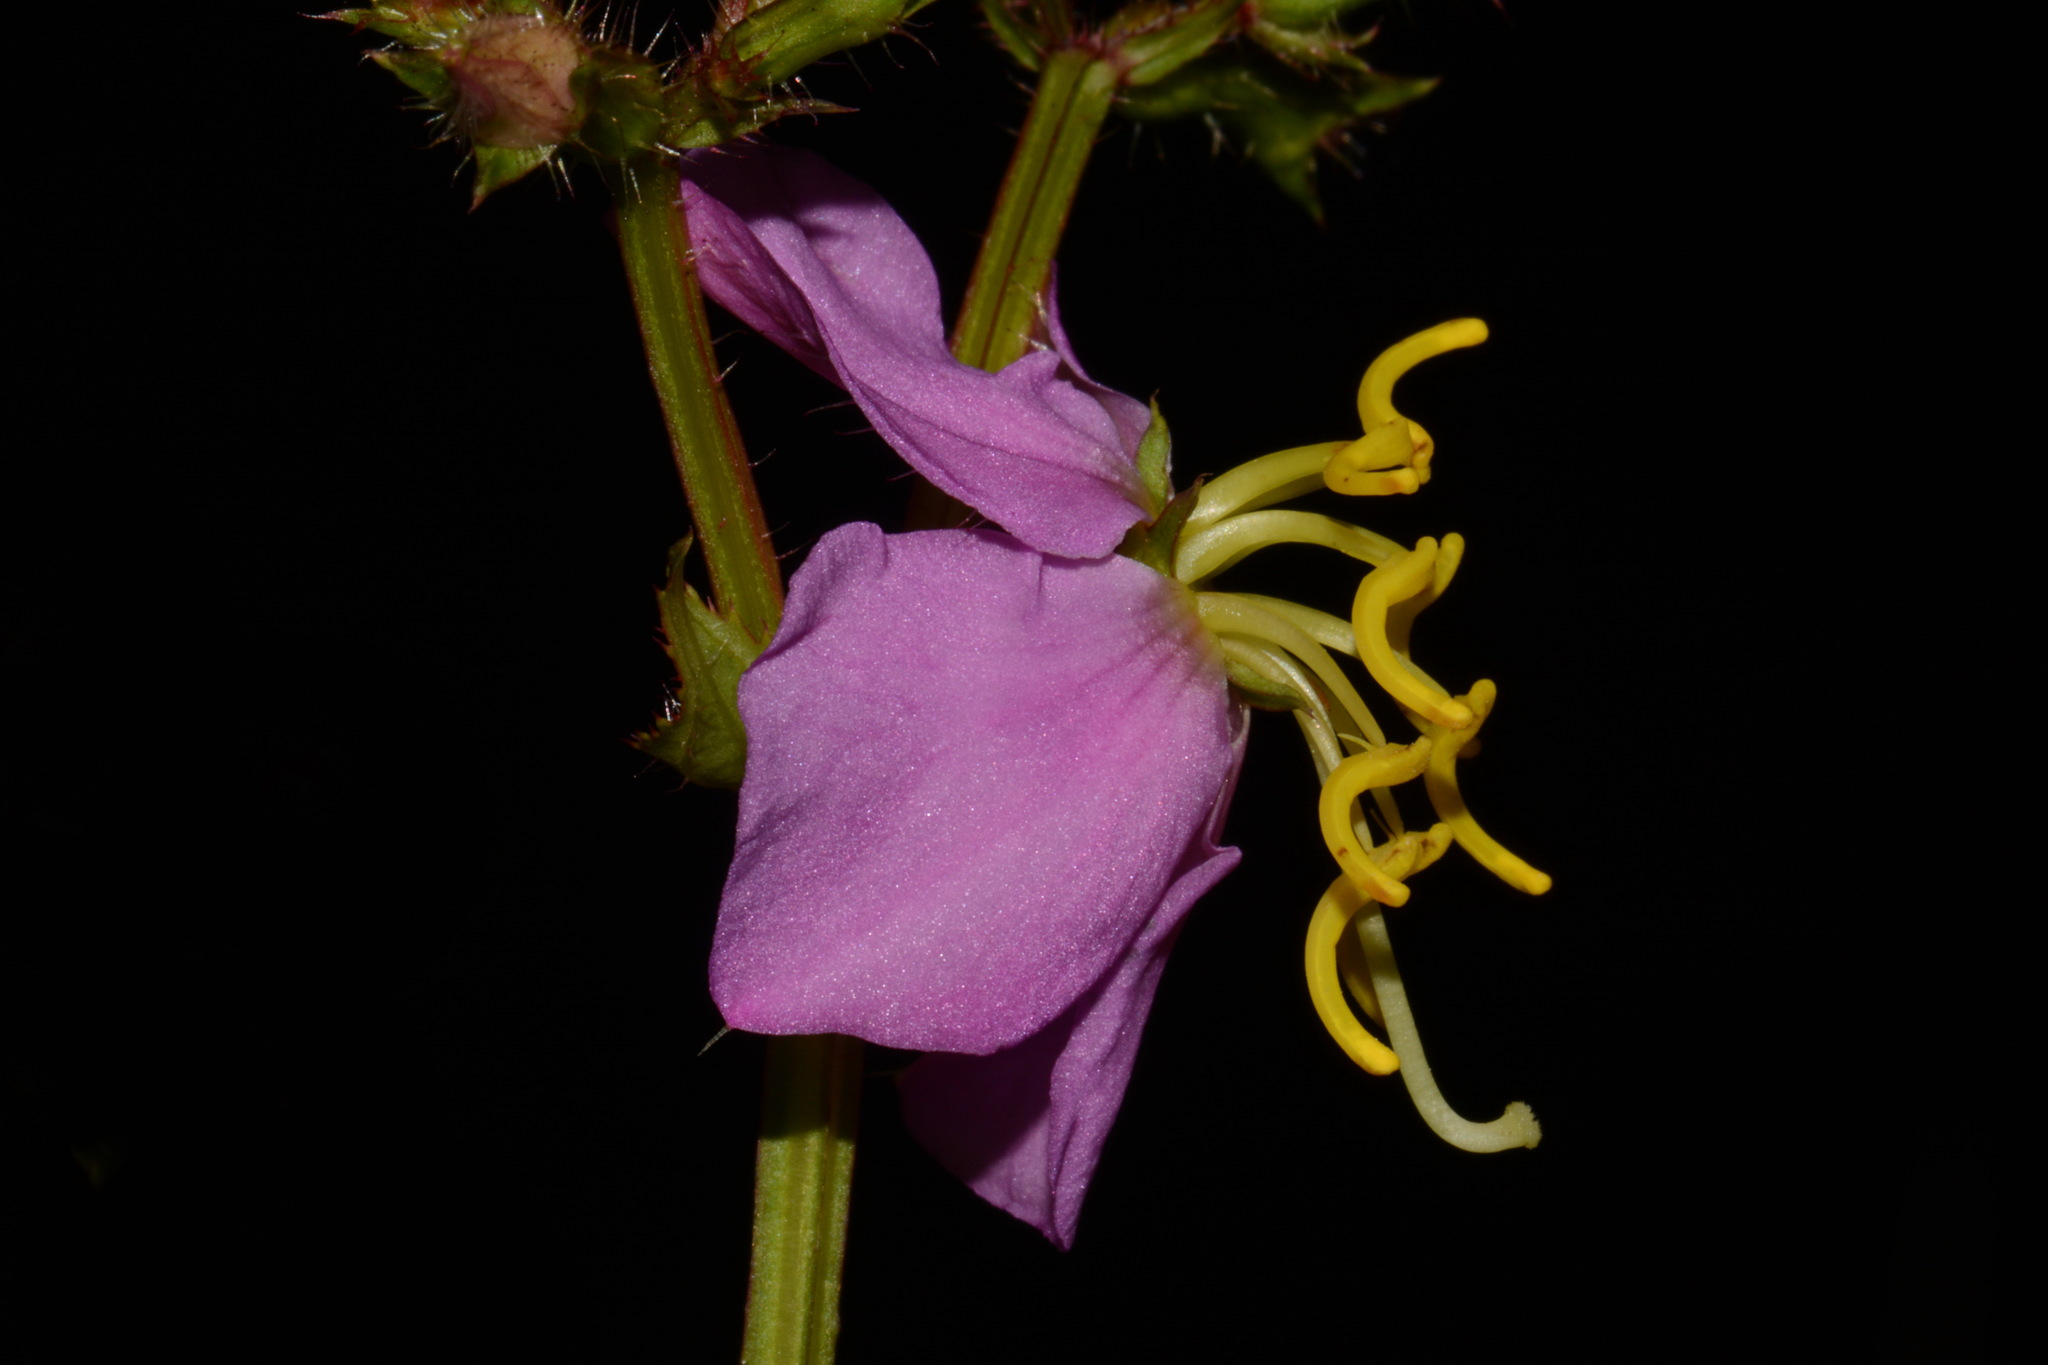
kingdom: Plantae
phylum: Tracheophyta
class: Magnoliopsida
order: Myrtales
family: Melastomataceae
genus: Rhexia
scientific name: Rhexia virginica
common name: Common meadow beauty
